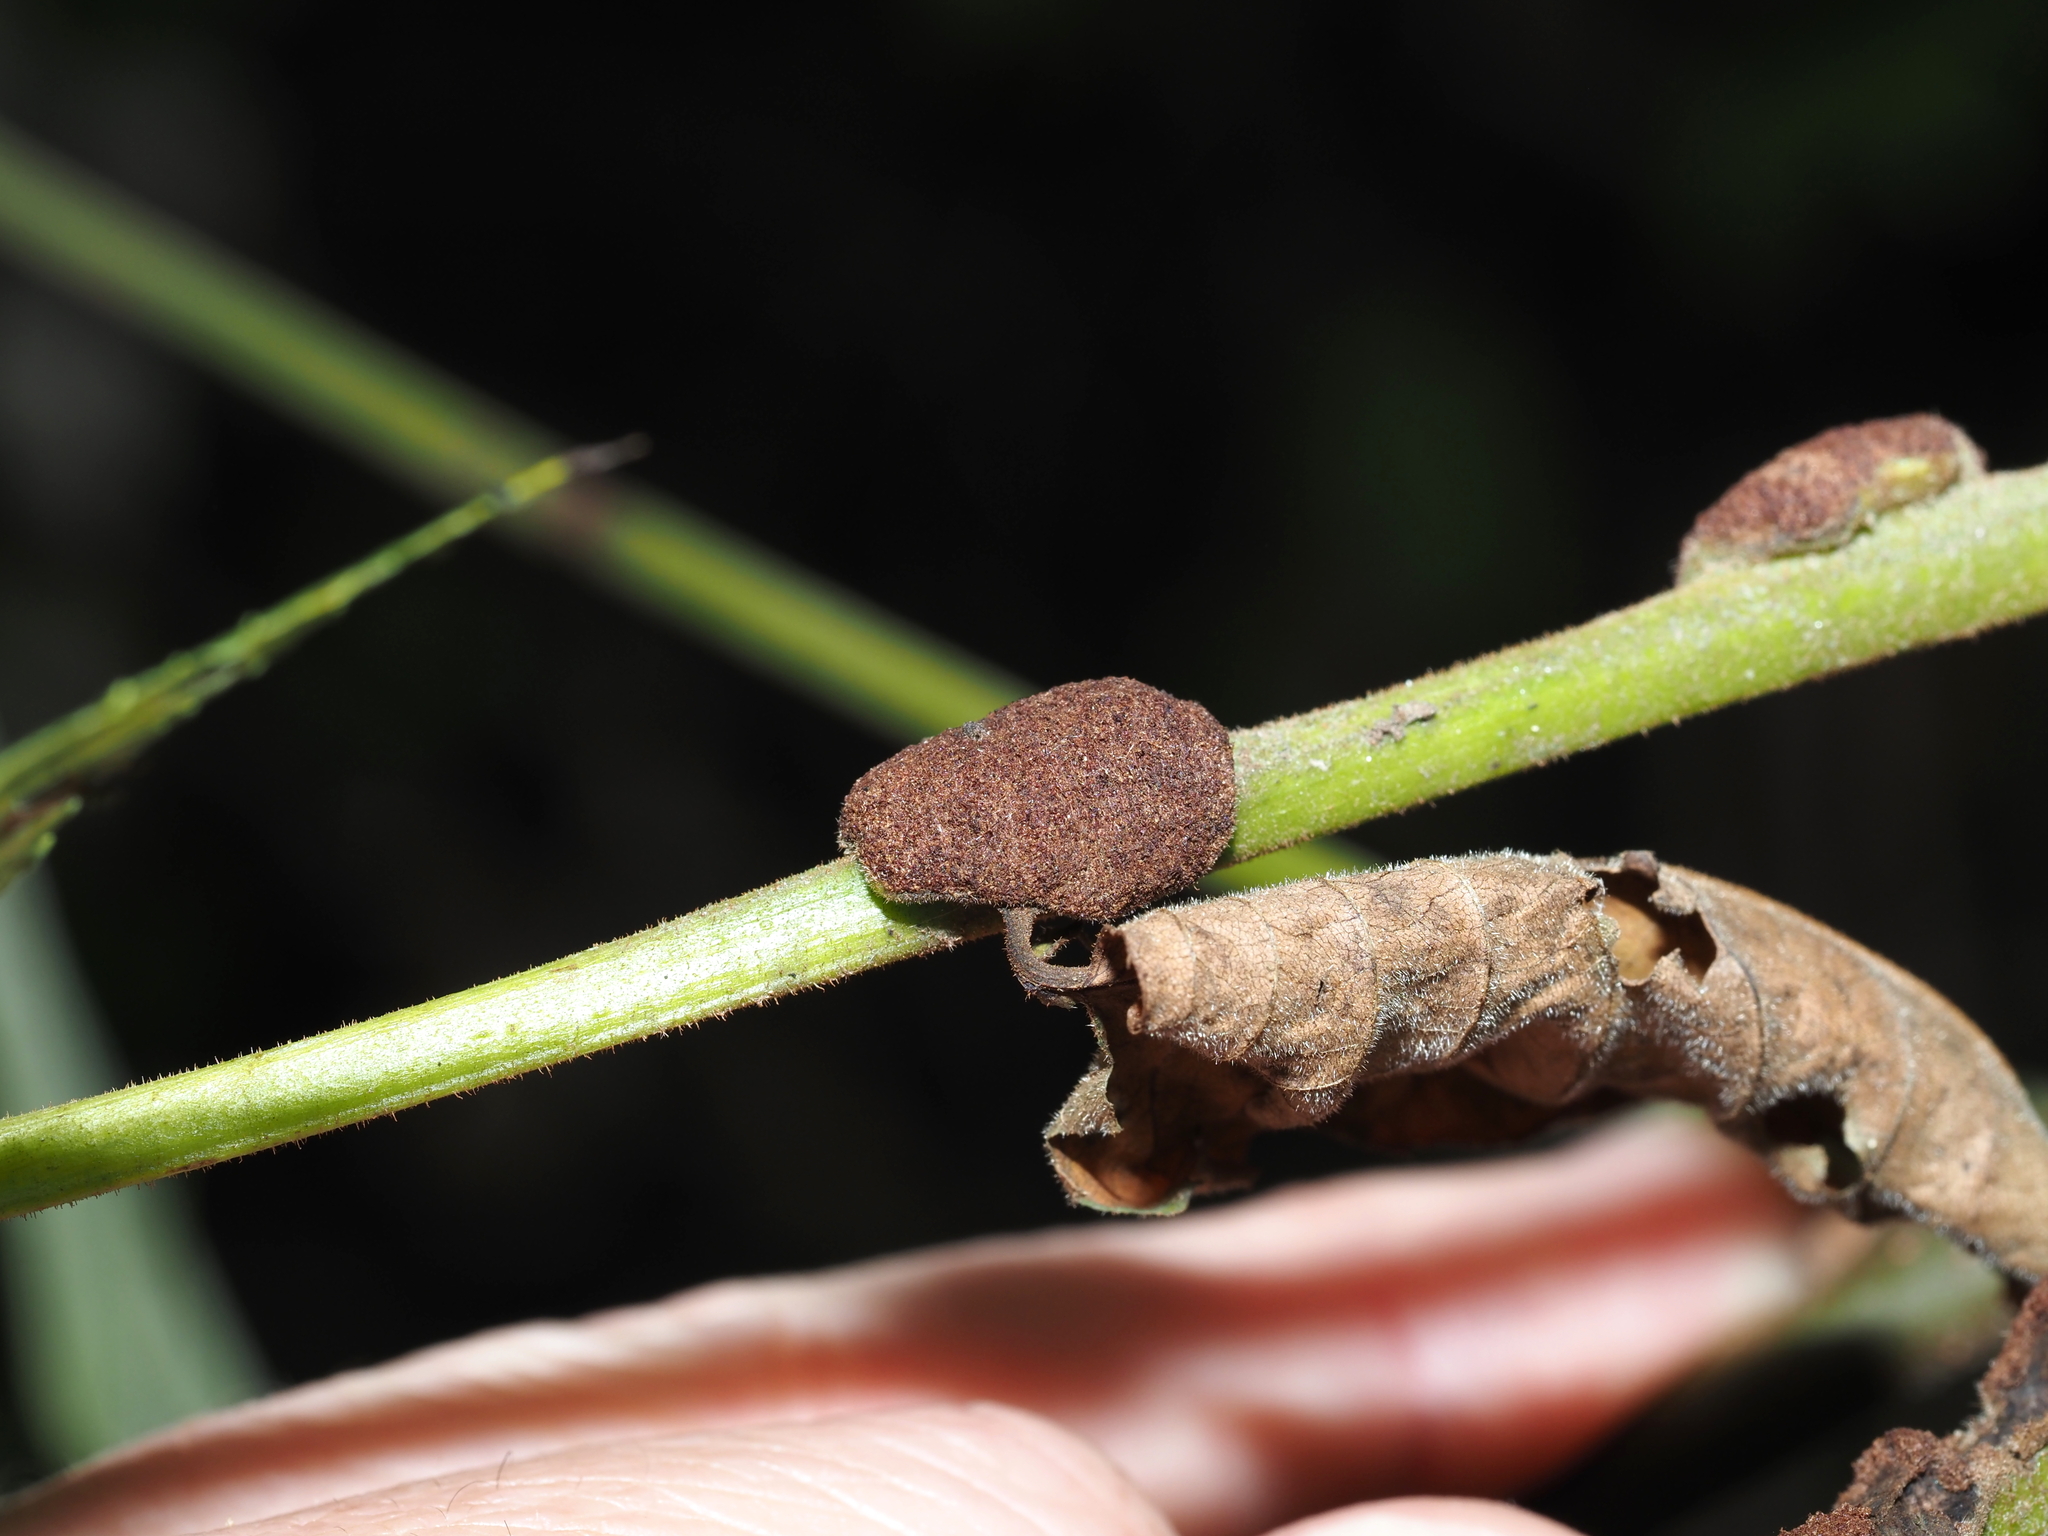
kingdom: Animalia
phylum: Arthropoda
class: Arachnida
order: Trombidiformes
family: Eriophyidae
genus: Aceria
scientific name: Aceria
